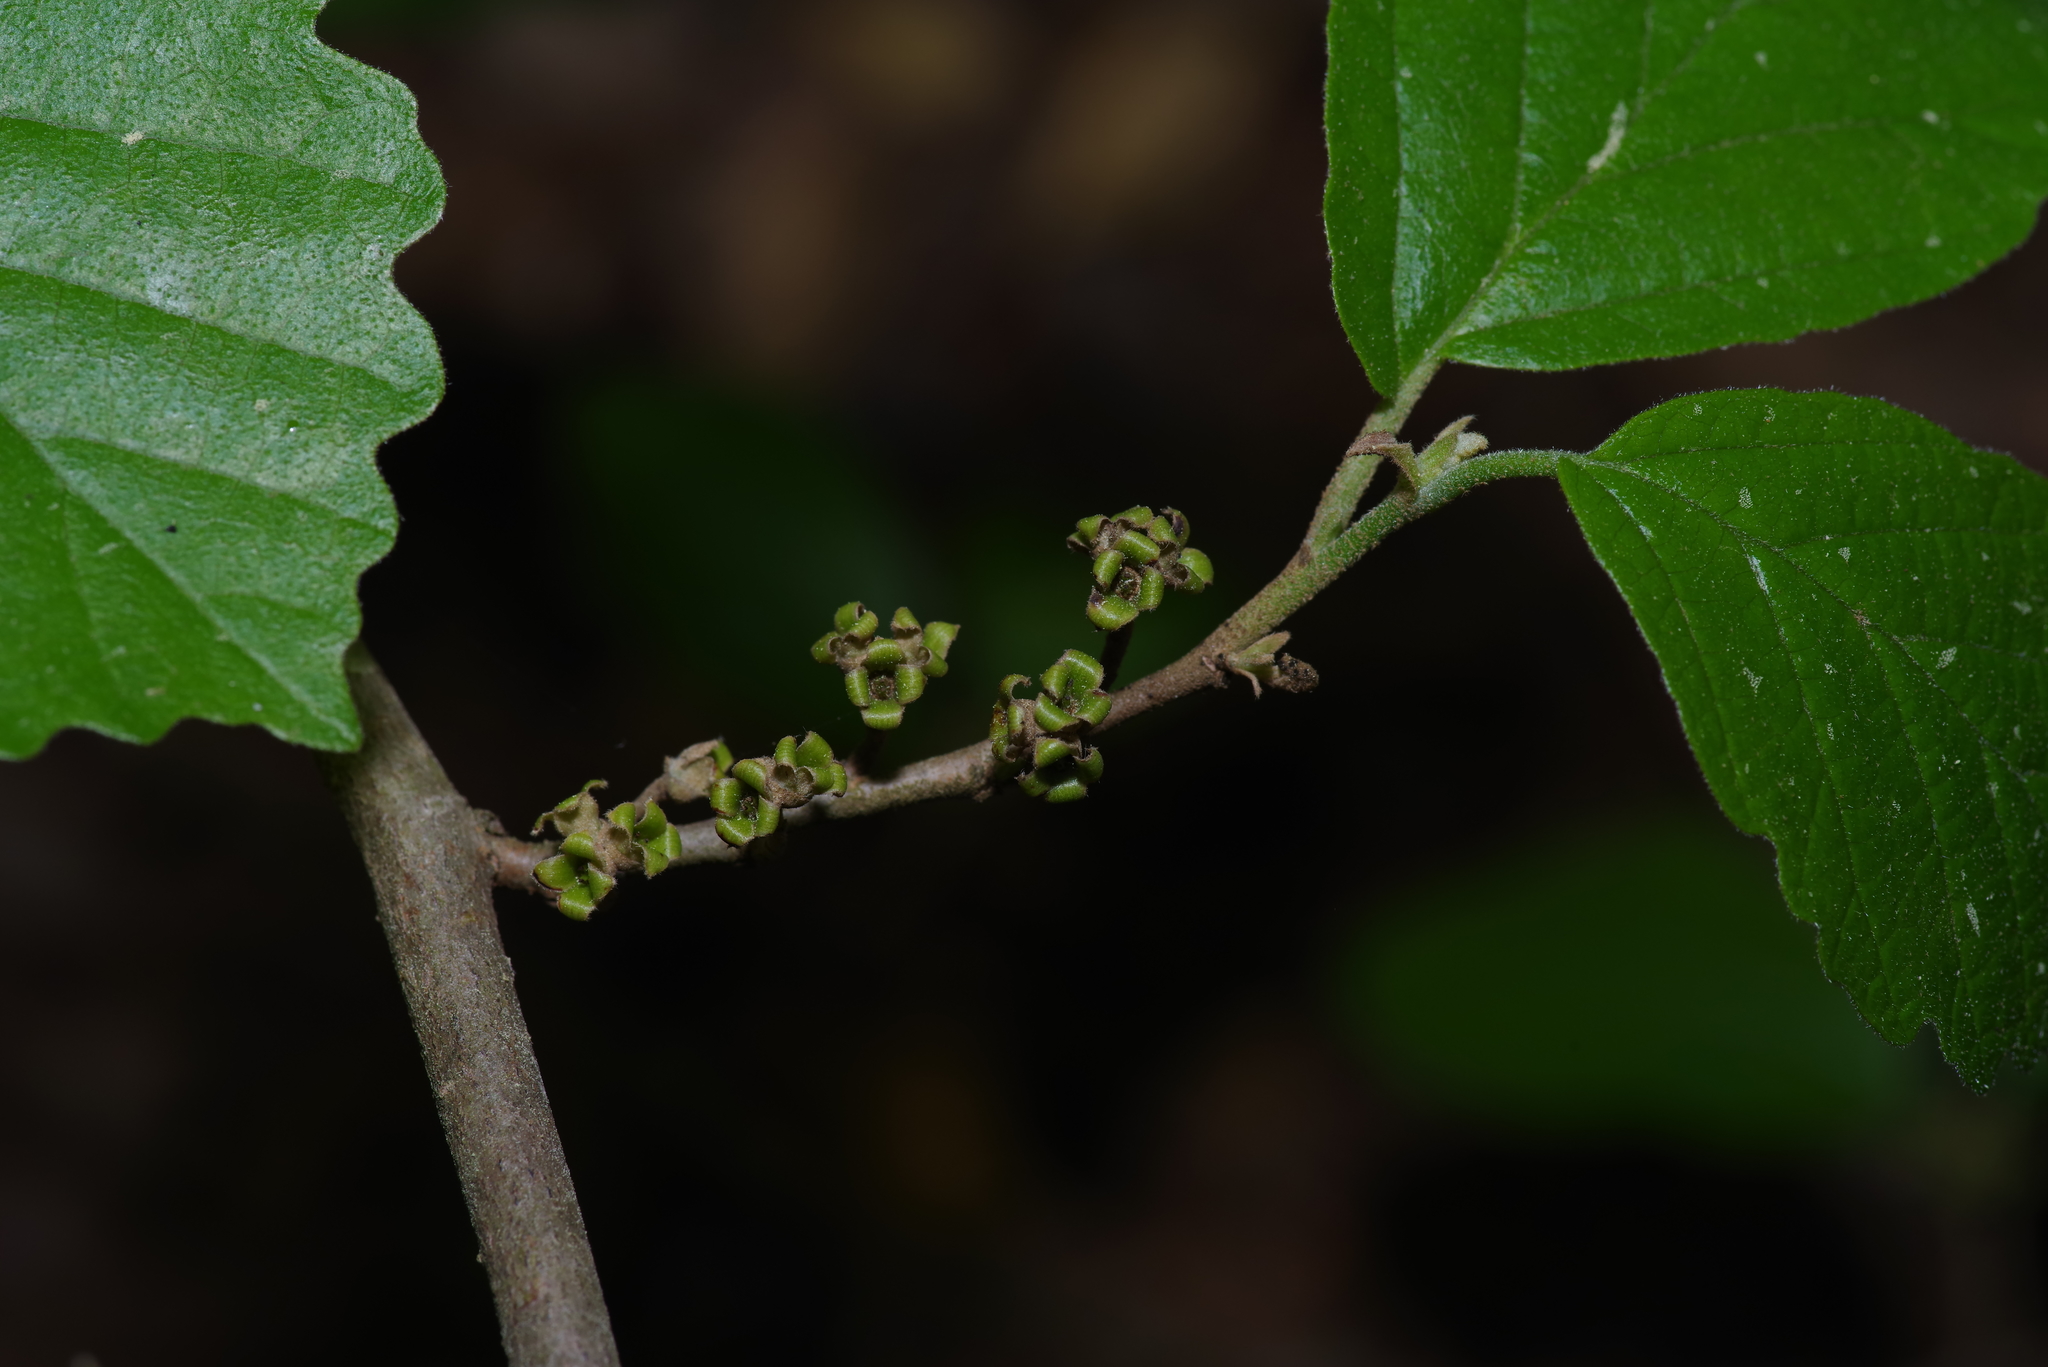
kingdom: Plantae
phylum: Tracheophyta
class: Magnoliopsida
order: Saxifragales
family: Hamamelidaceae
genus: Hamamelis
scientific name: Hamamelis virginiana
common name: Witch-hazel
